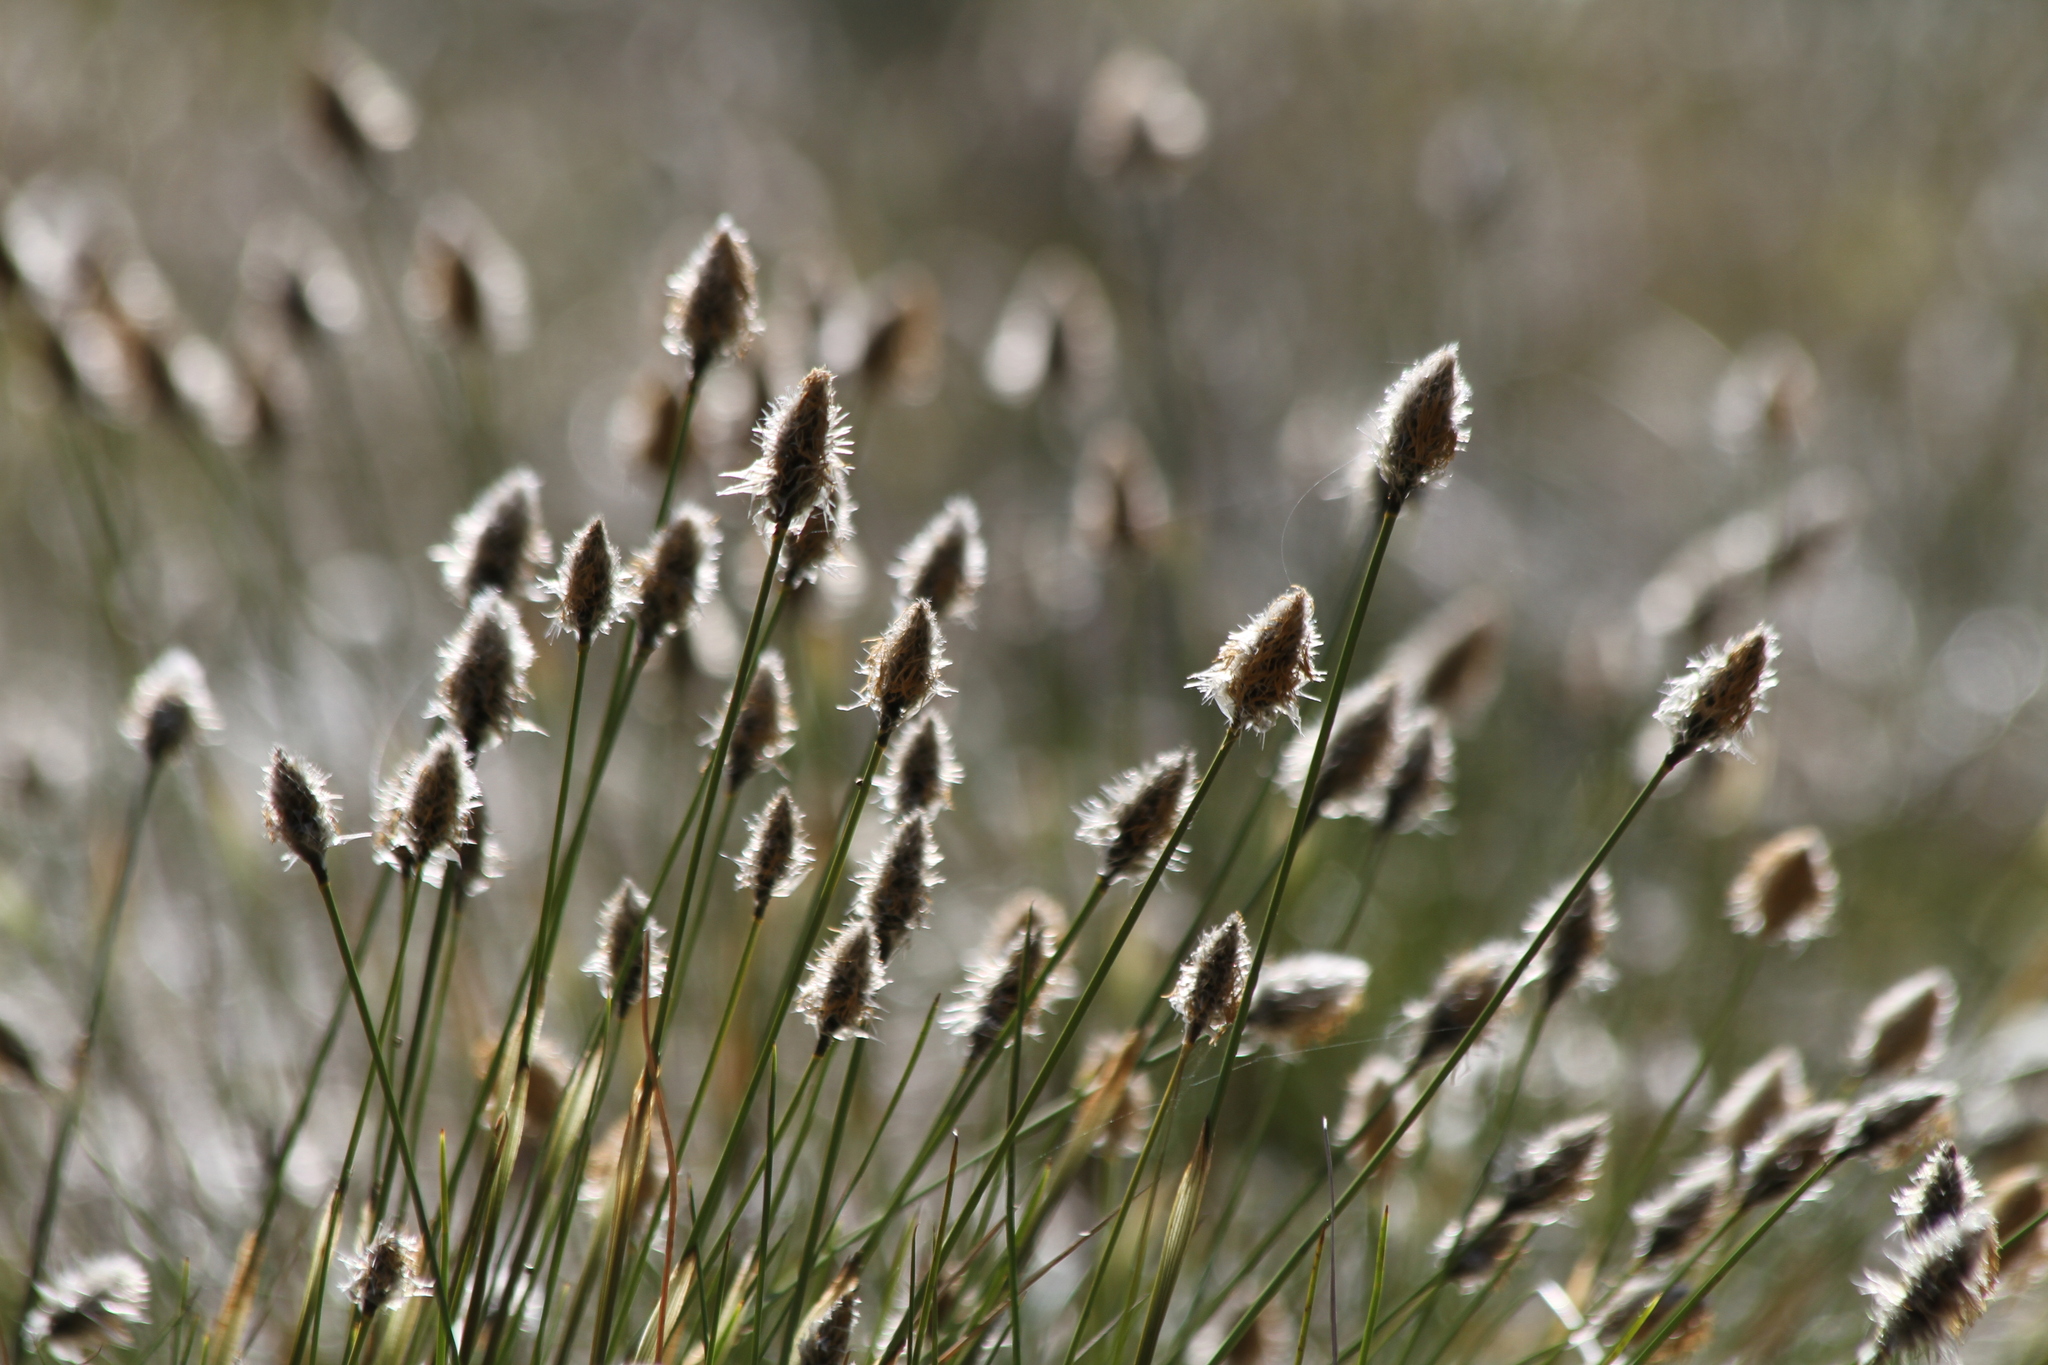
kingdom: Plantae
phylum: Tracheophyta
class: Liliopsida
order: Poales
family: Cyperaceae
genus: Eriophorum
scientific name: Eriophorum vaginatum
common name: Hare's-tail cottongrass
